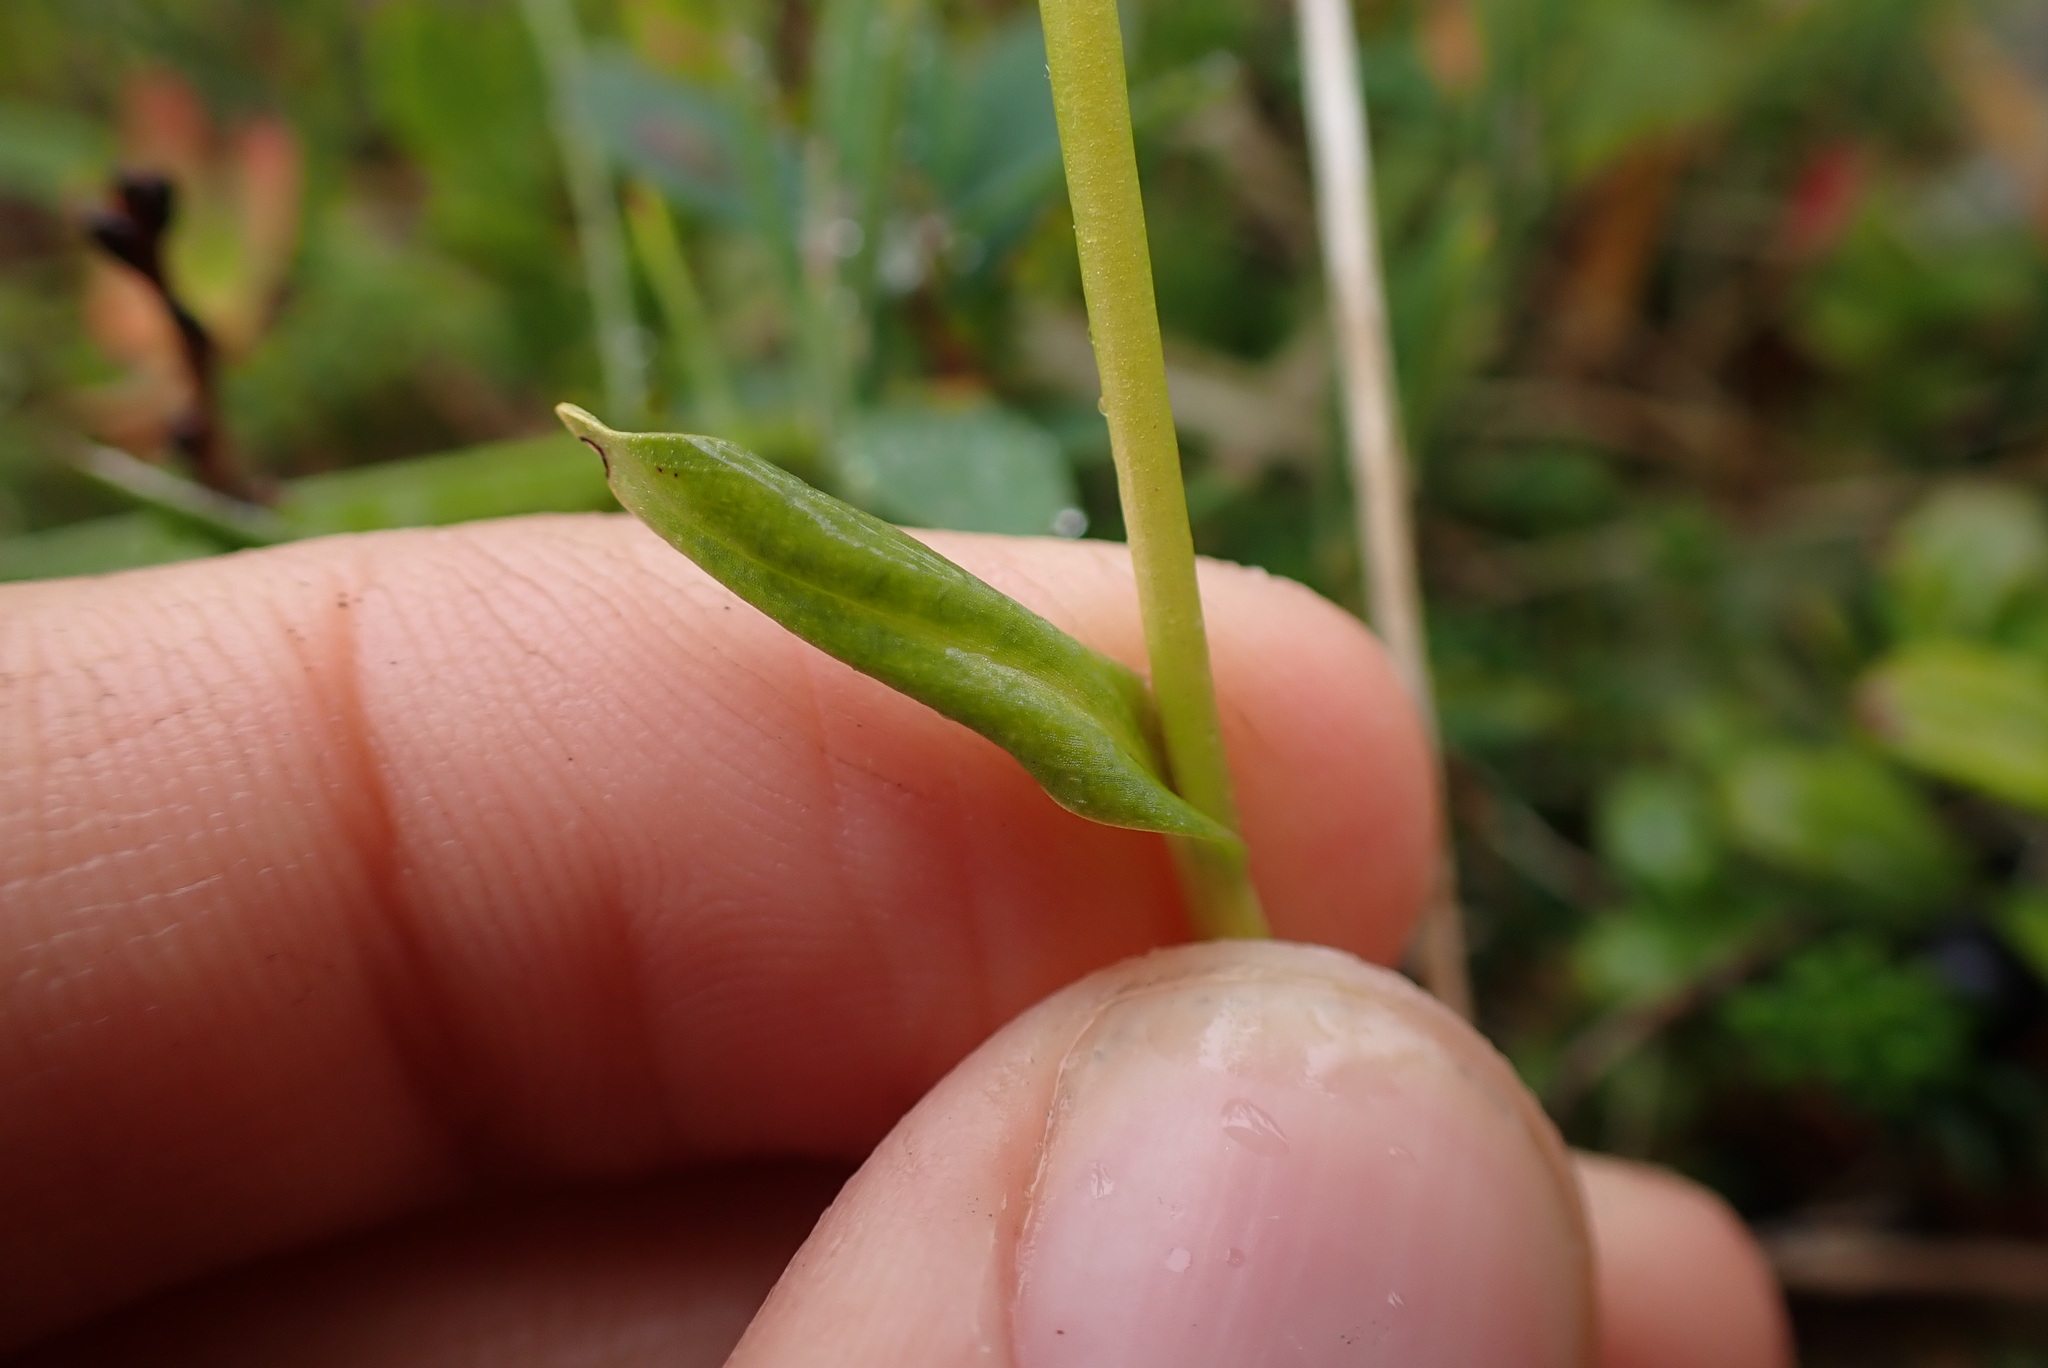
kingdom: Plantae
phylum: Tracheophyta
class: Liliopsida
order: Asparagales
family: Orchidaceae
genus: Dactylorhiza
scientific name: Dactylorhiza viridis
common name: Longbract frog orchid
